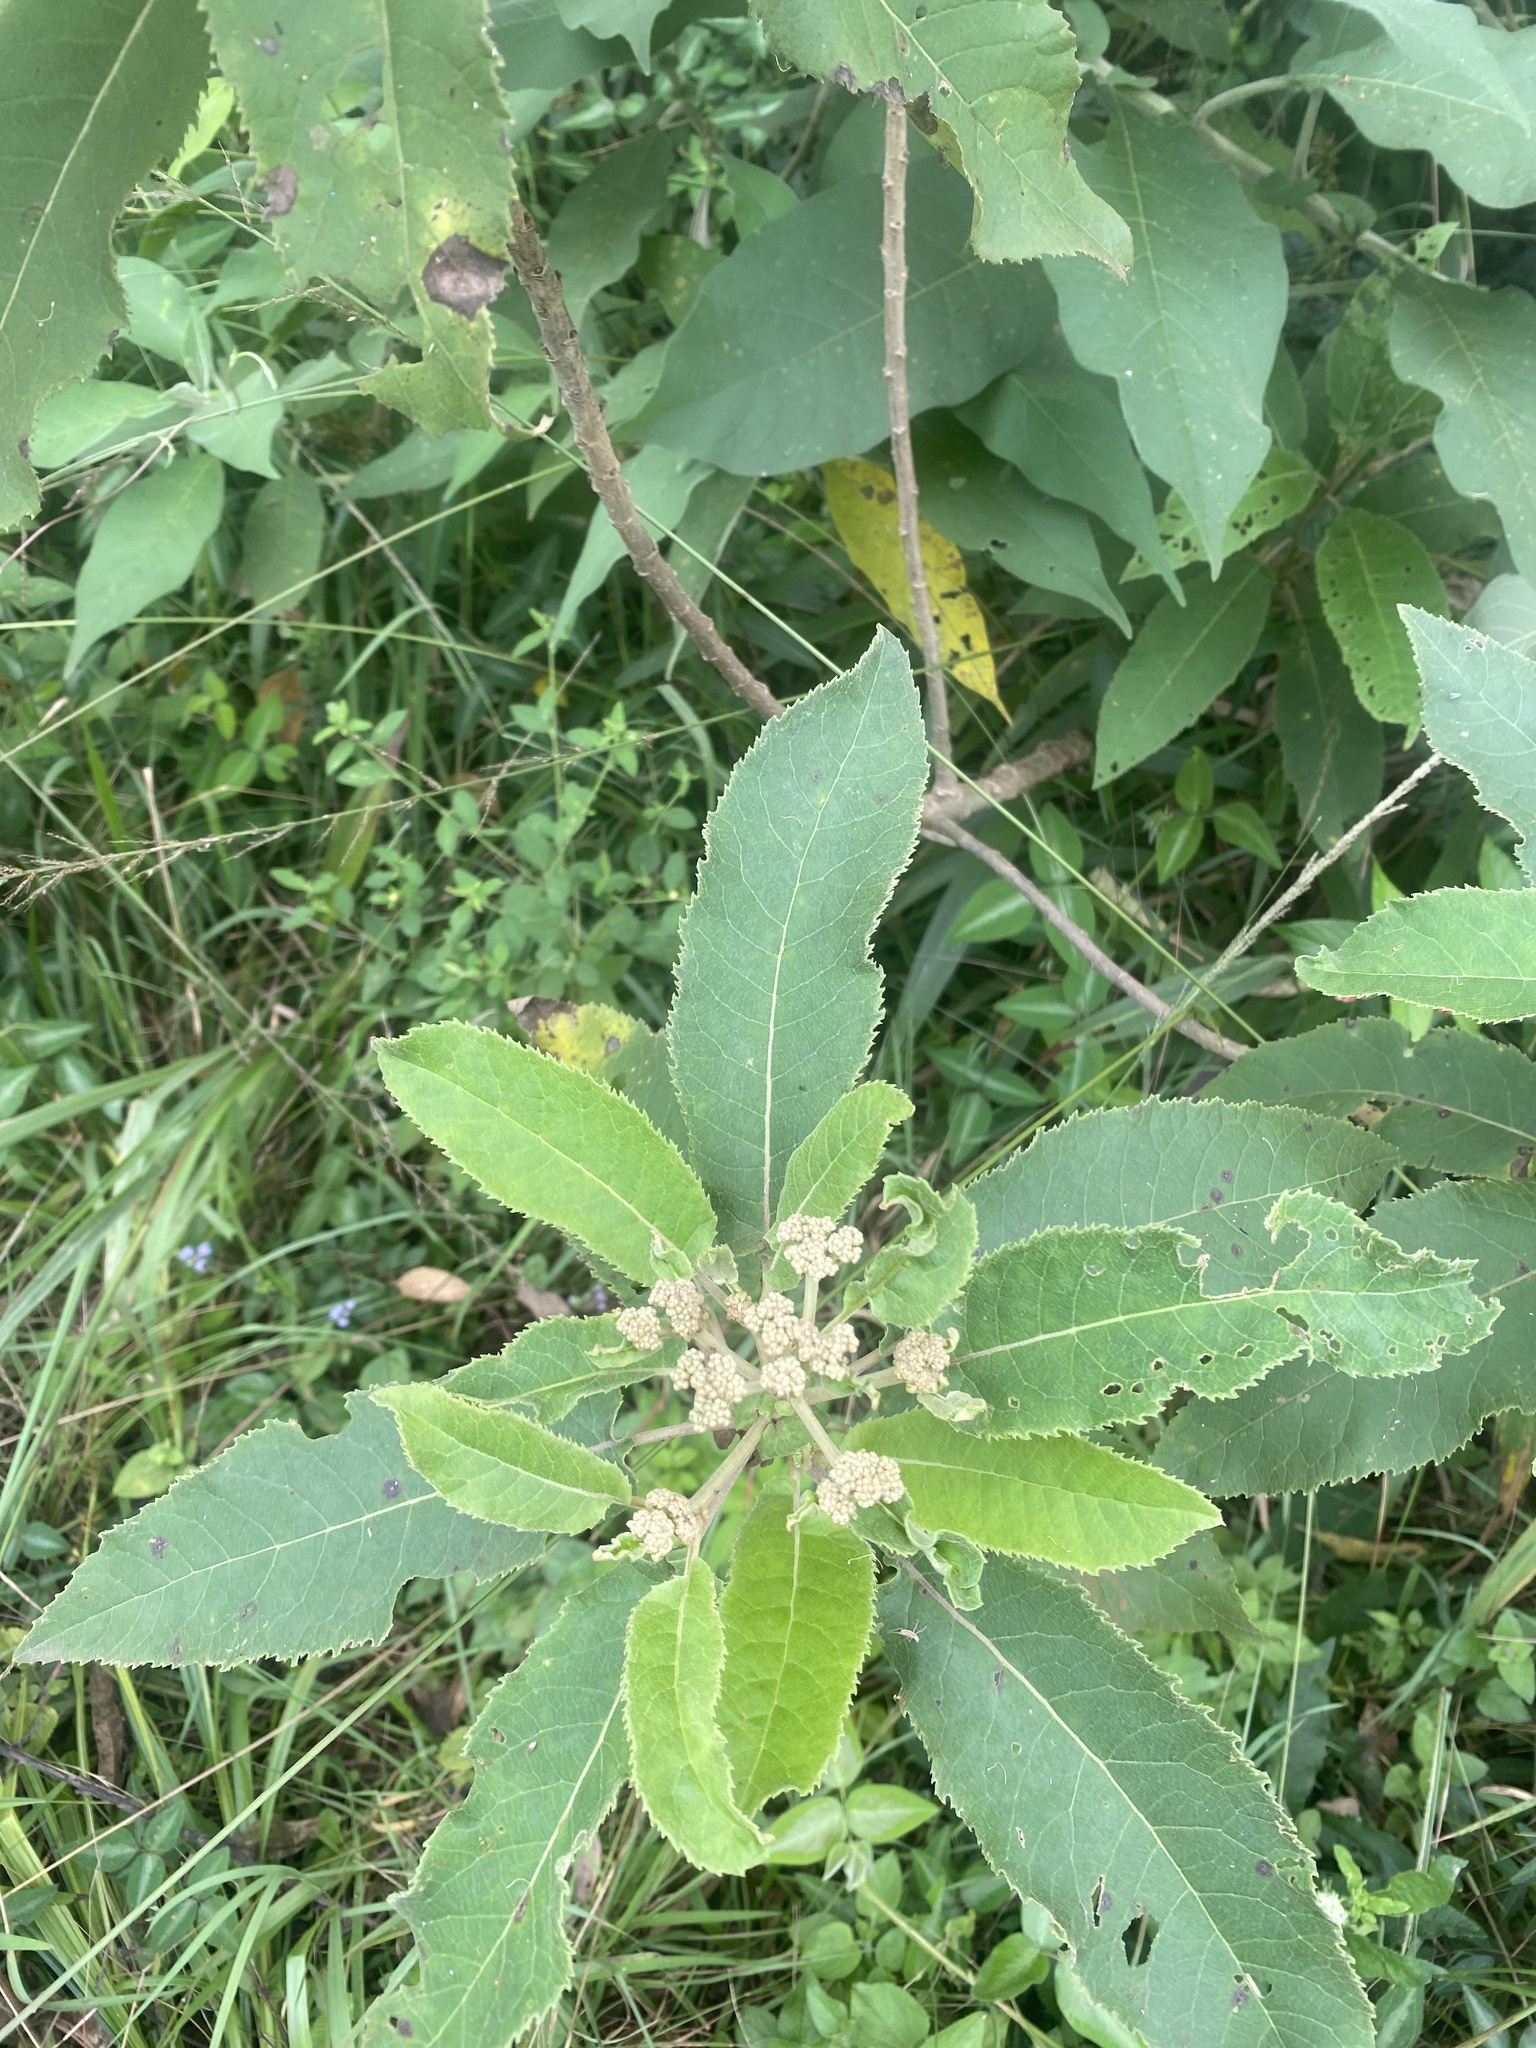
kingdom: Plantae
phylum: Tracheophyta
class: Magnoliopsida
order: Asterales
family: Asteraceae
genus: Gymnanthemum
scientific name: Gymnanthemum amygdalinum
